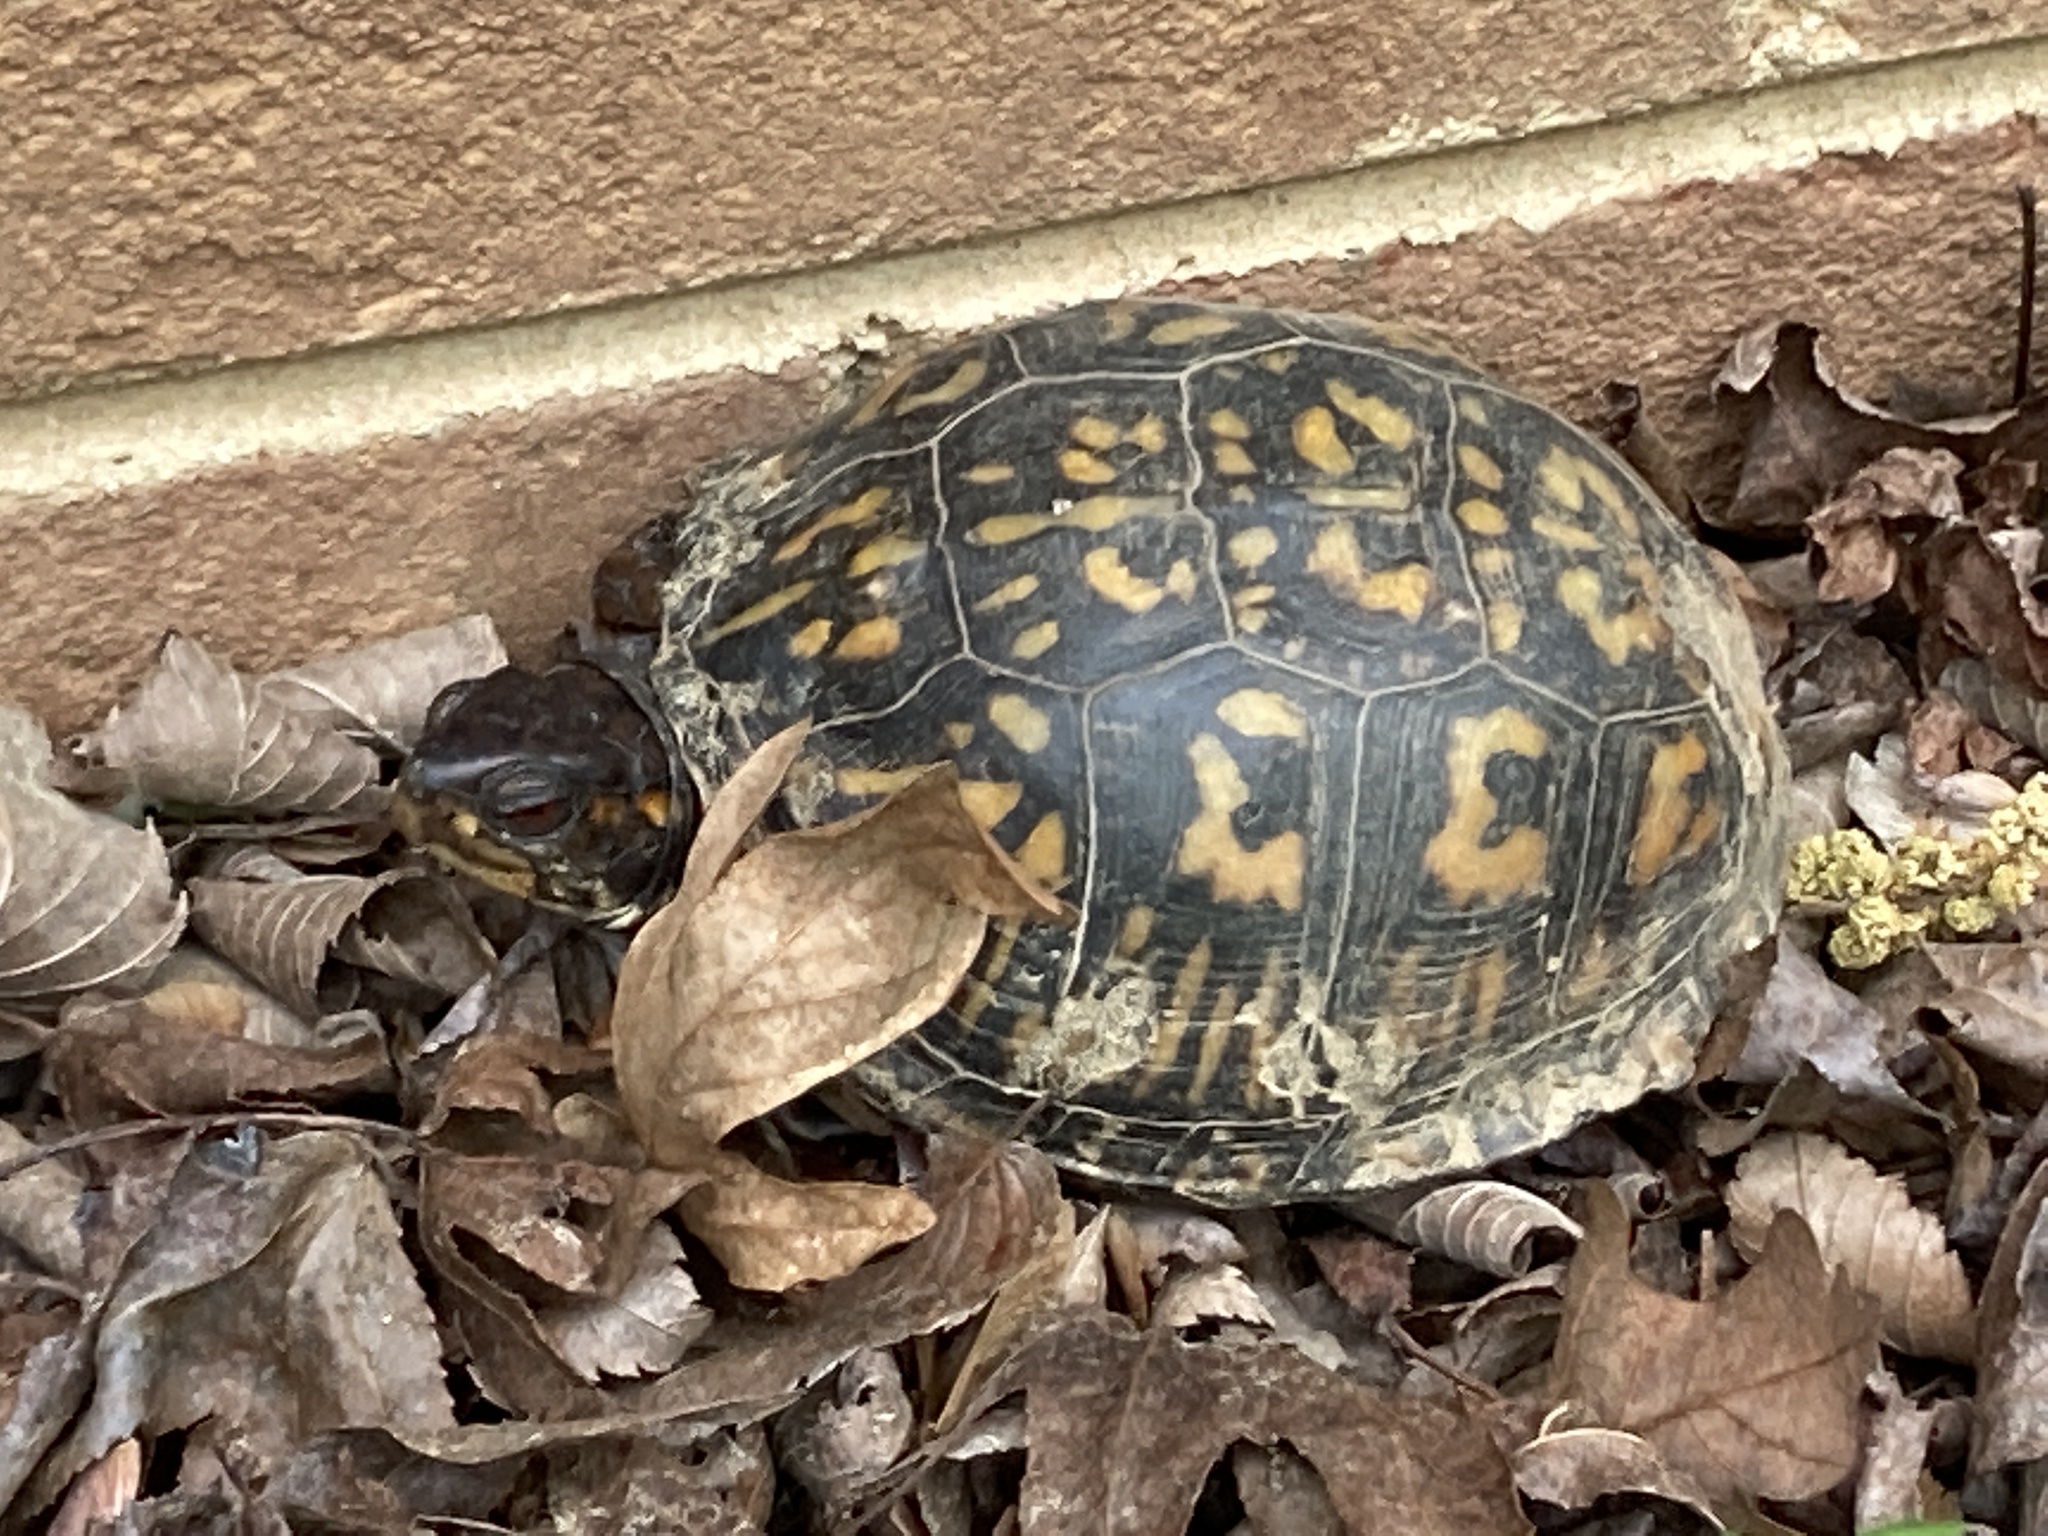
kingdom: Animalia
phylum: Chordata
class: Testudines
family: Emydidae
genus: Terrapene
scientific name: Terrapene carolina
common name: Common box turtle
